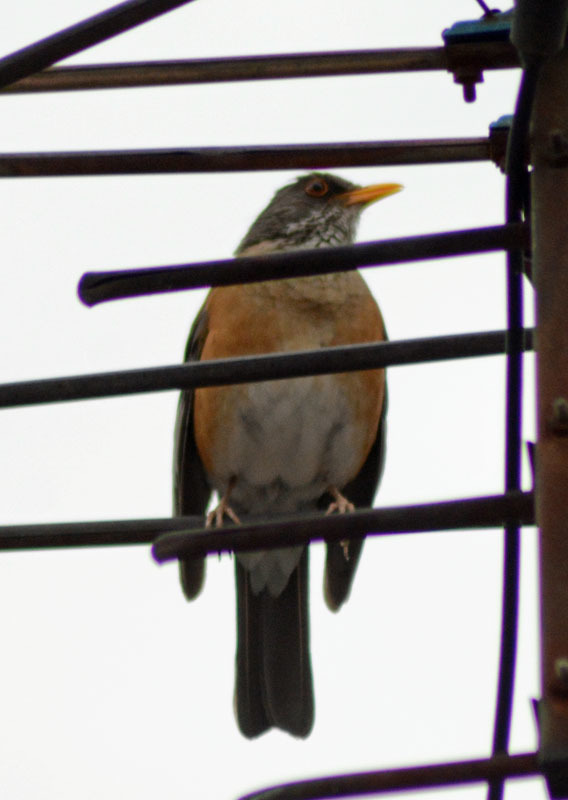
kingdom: Animalia
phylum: Chordata
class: Aves
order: Passeriformes
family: Turdidae
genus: Turdus
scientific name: Turdus rufopalliatus
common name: Rufous-backed robin
